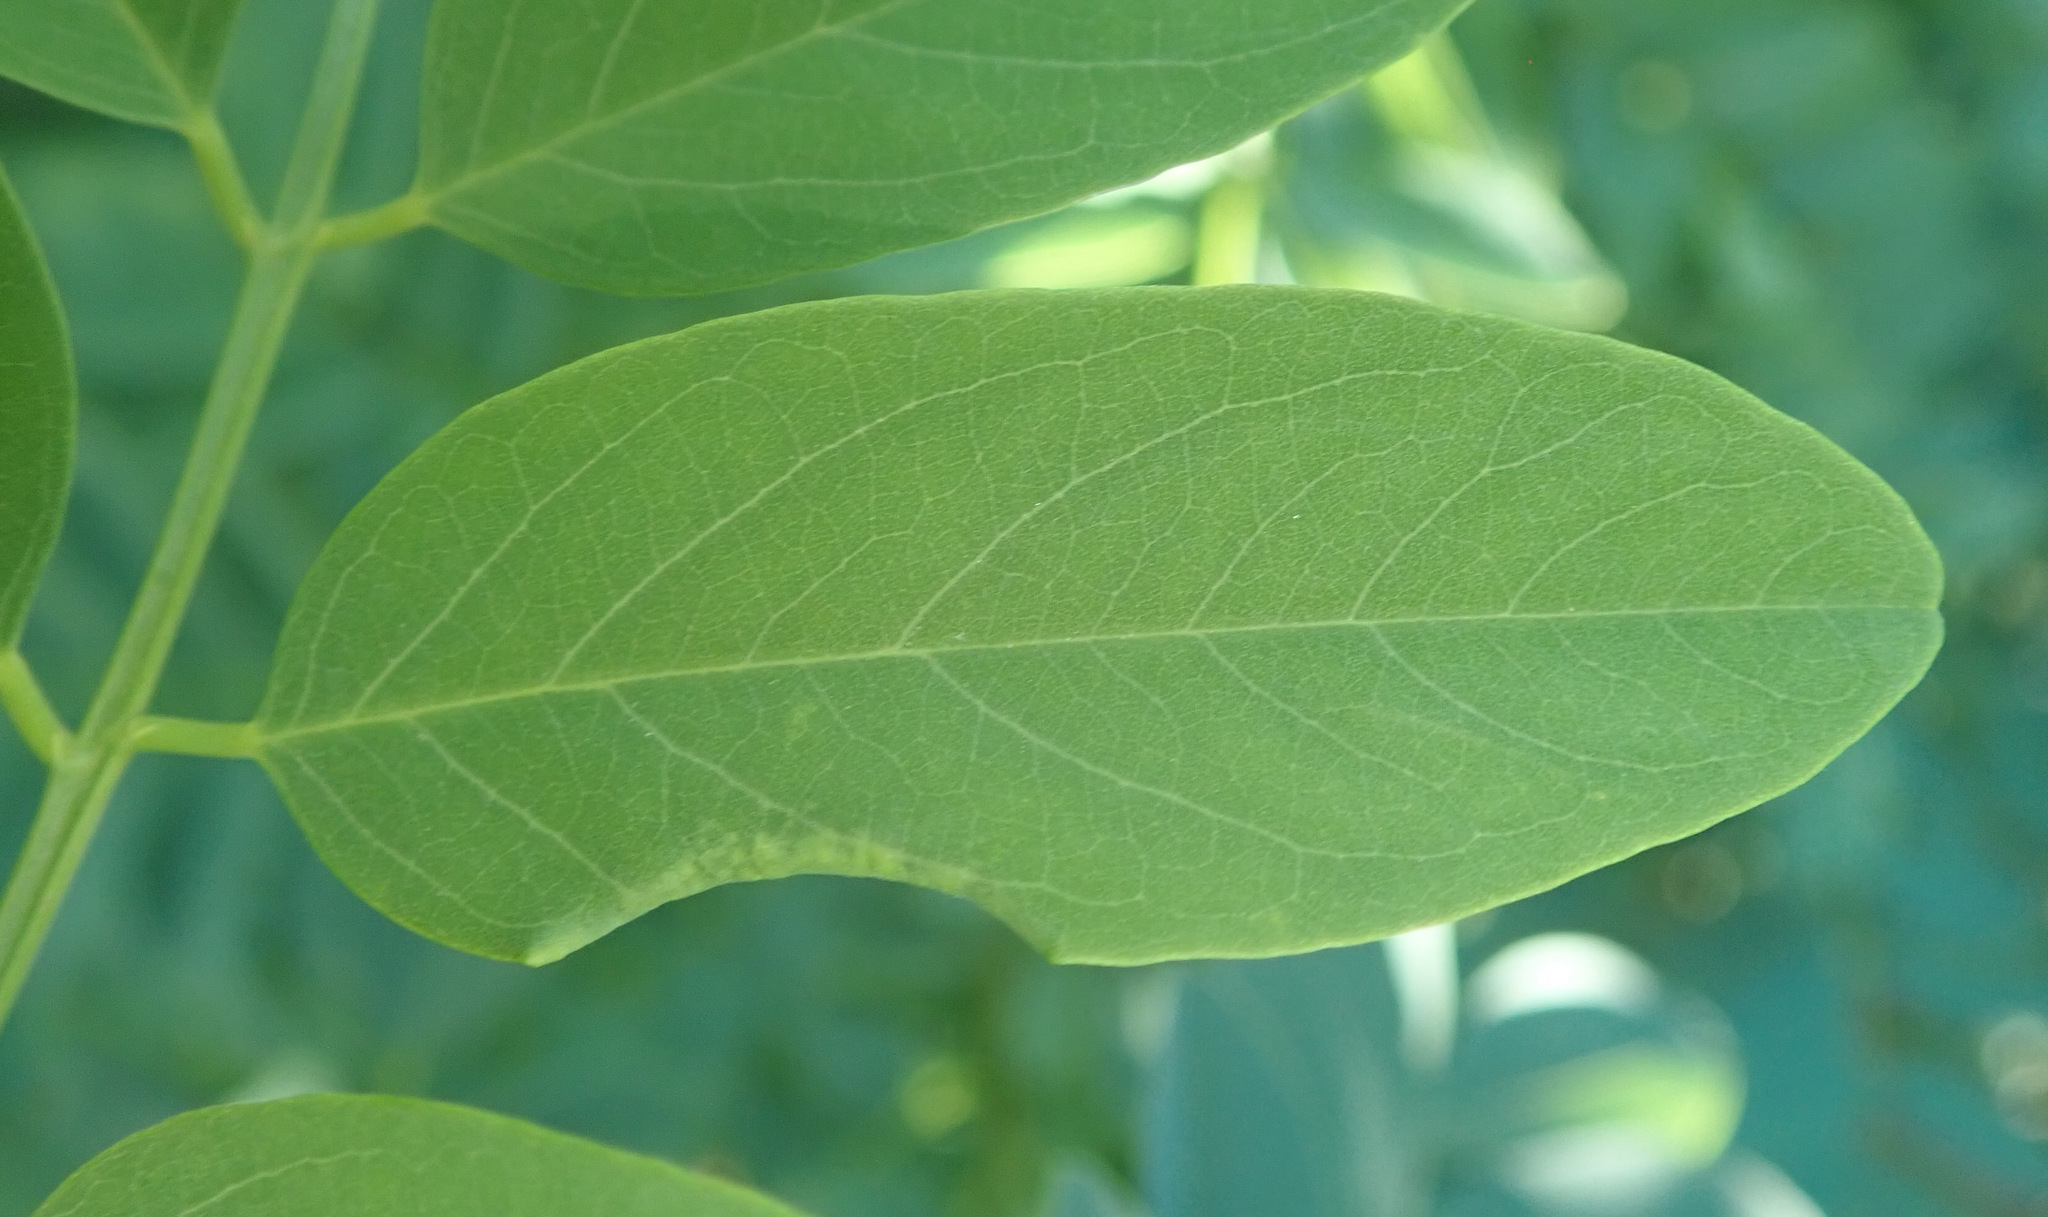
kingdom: Animalia
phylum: Arthropoda
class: Insecta
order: Diptera
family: Cecidomyiidae
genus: Obolodiplosis
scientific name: Obolodiplosis robiniae
